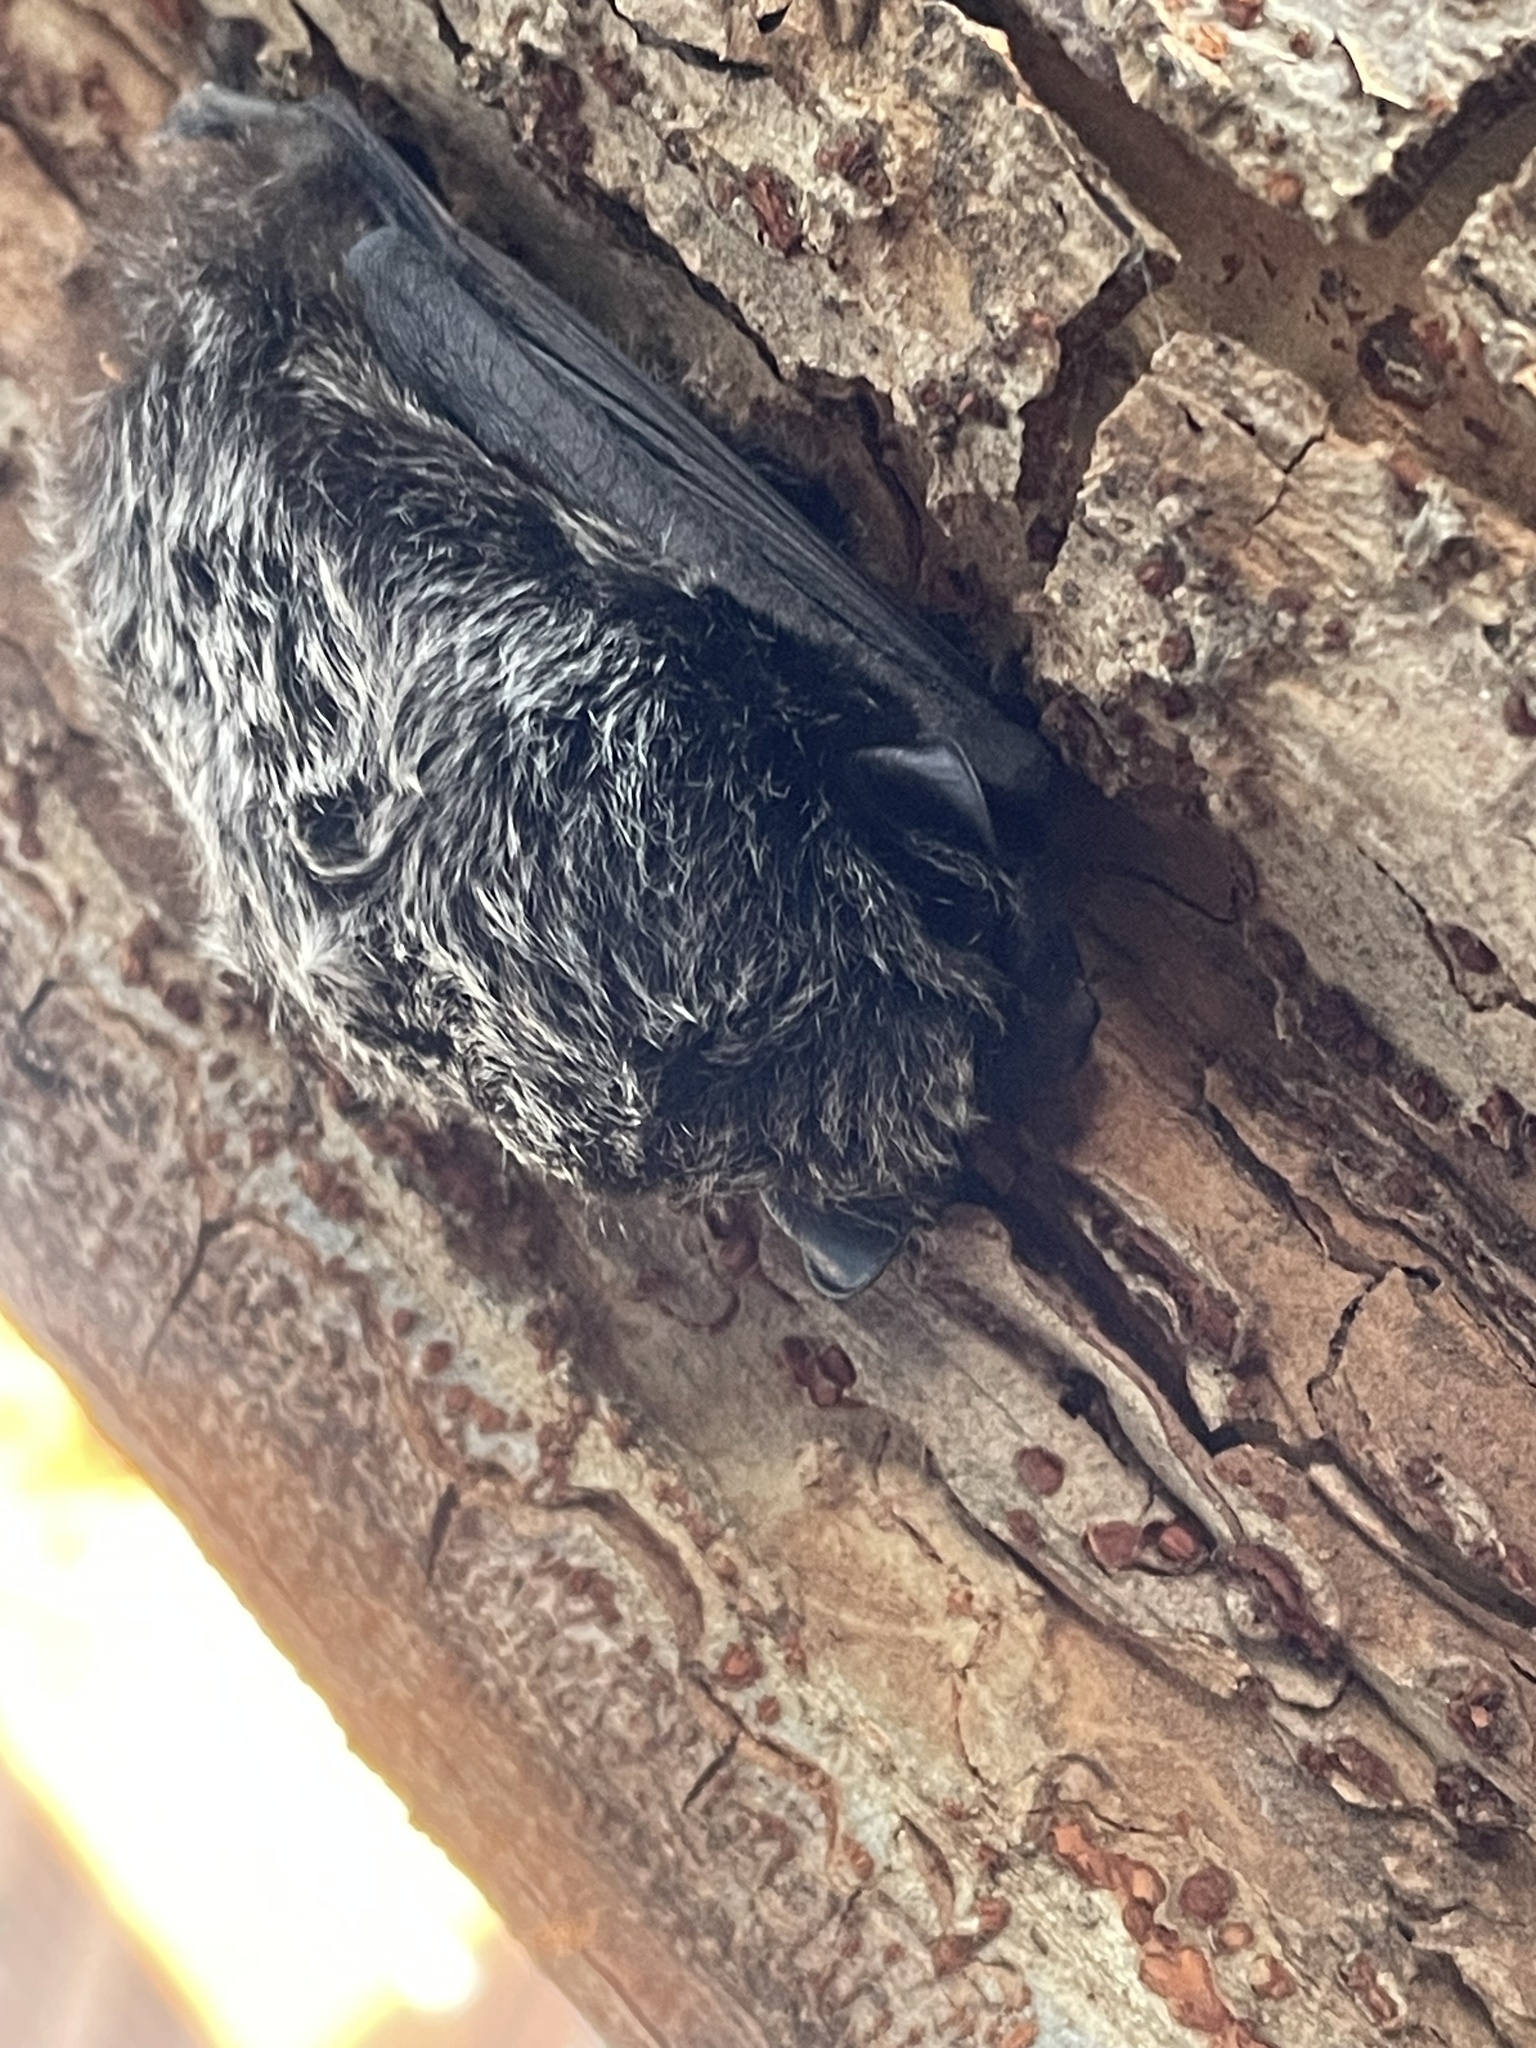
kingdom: Animalia
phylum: Chordata
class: Mammalia
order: Chiroptera
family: Vespertilionidae
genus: Lasionycteris
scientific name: Lasionycteris noctivagans
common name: Silver-haired bat
